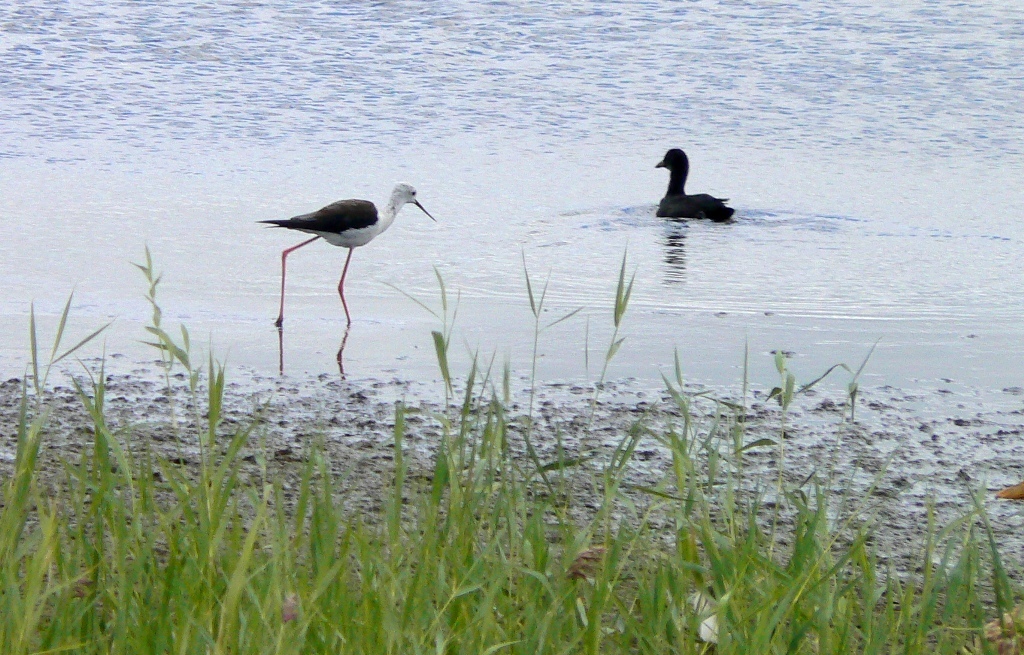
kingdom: Animalia
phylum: Chordata
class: Aves
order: Charadriiformes
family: Recurvirostridae
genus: Himantopus
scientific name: Himantopus himantopus
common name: Black-winged stilt
